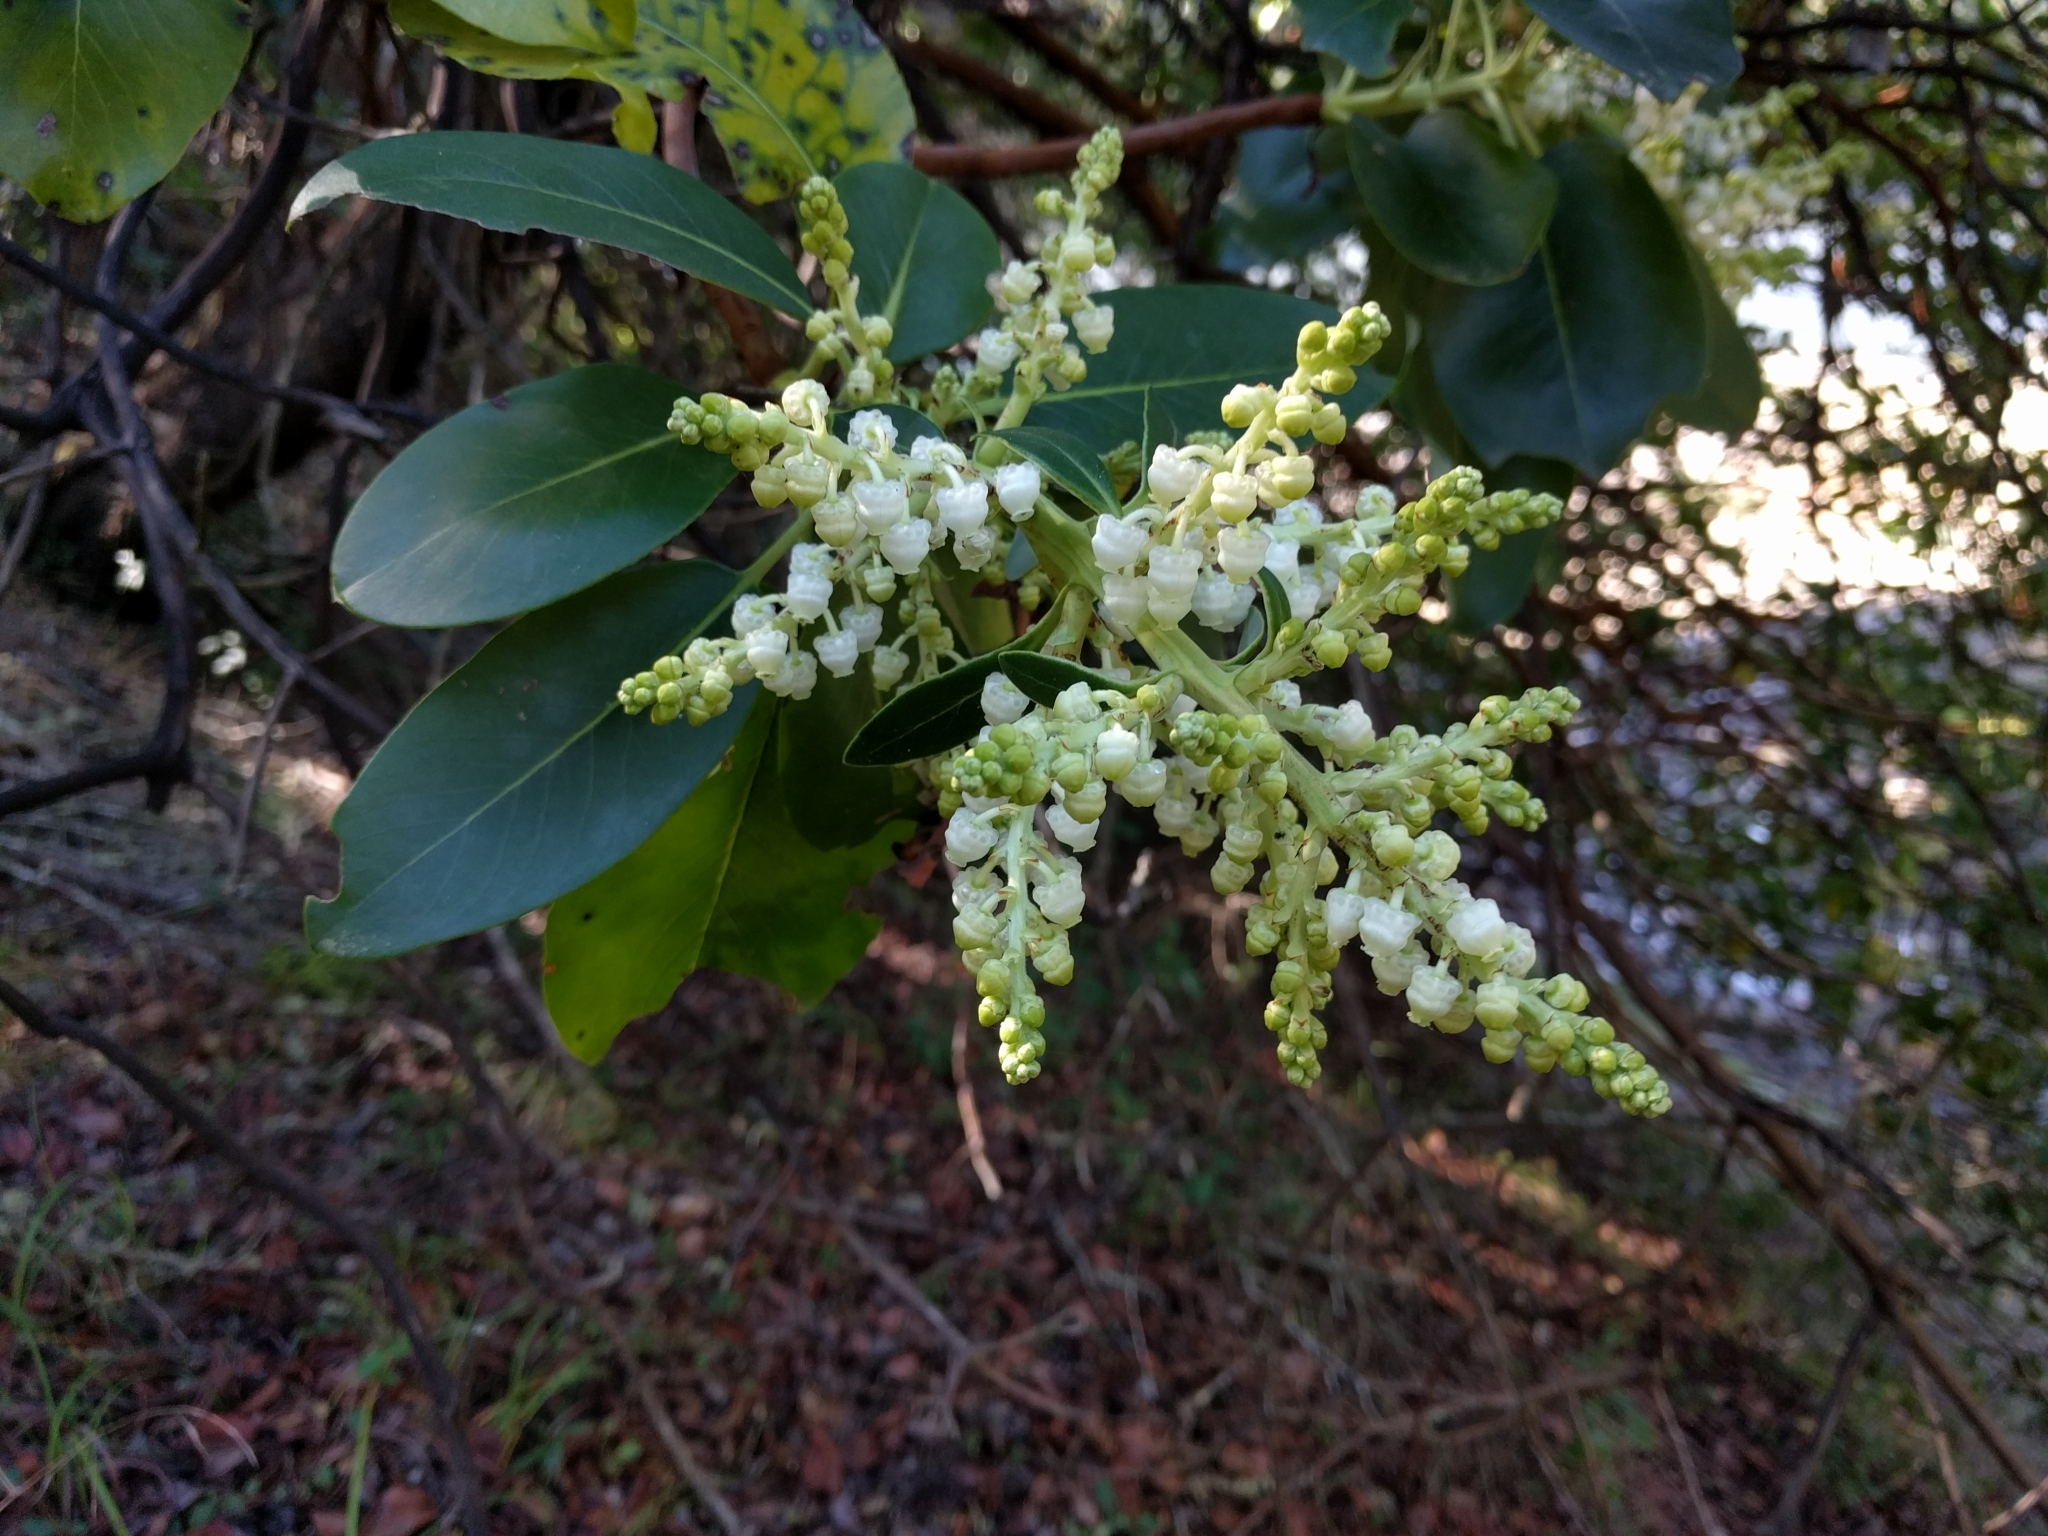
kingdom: Plantae
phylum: Tracheophyta
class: Magnoliopsida
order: Ericales
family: Ericaceae
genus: Arbutus
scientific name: Arbutus menziesii
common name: Pacific madrone
